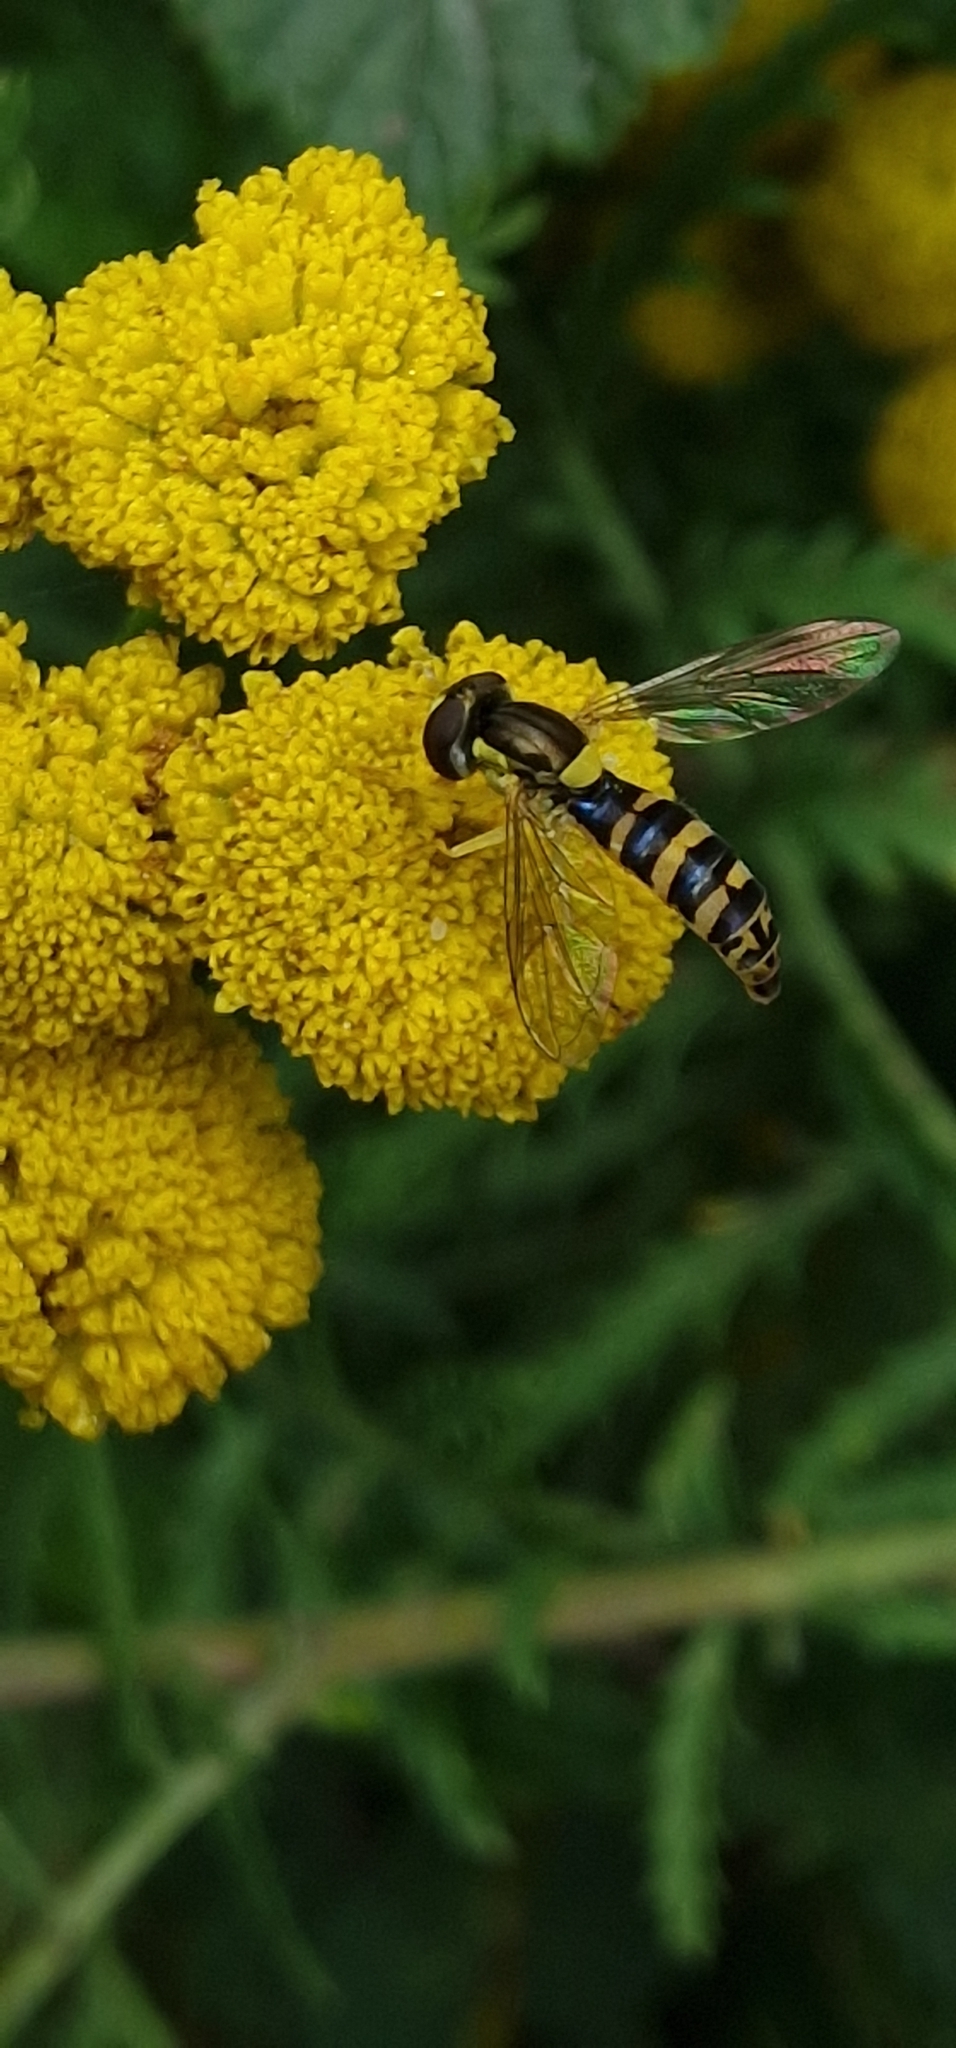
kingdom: Animalia
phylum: Arthropoda
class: Insecta
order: Diptera
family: Syrphidae
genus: Sphaerophoria
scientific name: Sphaerophoria
